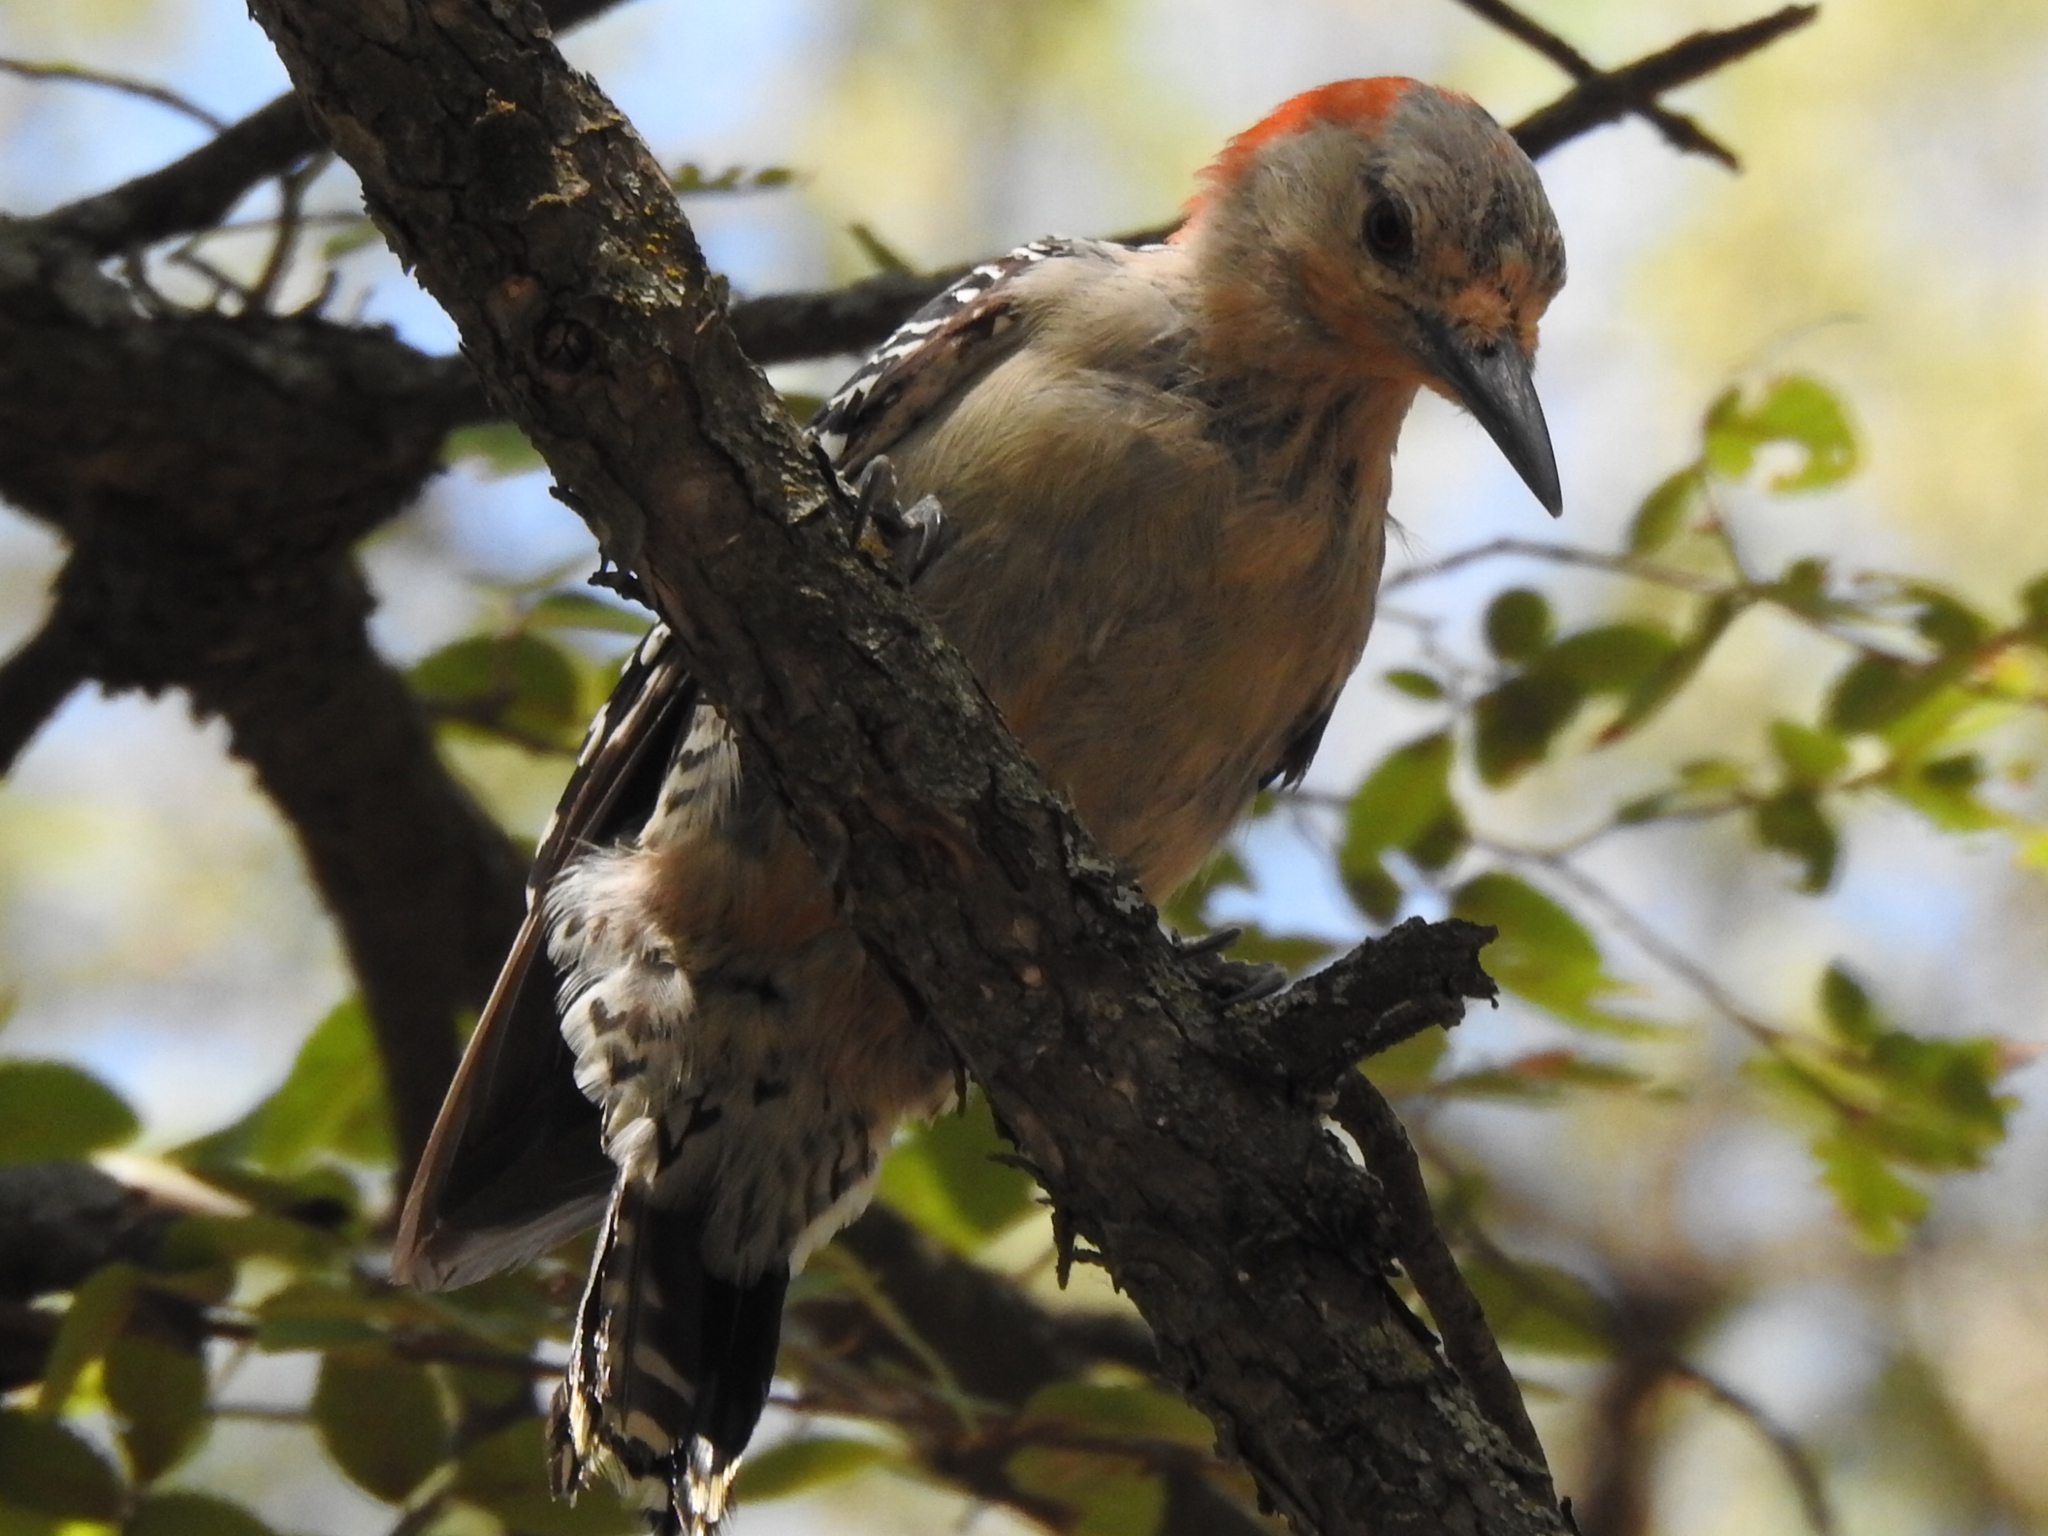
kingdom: Animalia
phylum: Chordata
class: Aves
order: Piciformes
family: Picidae
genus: Melanerpes
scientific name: Melanerpes carolinus
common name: Red-bellied woodpecker
